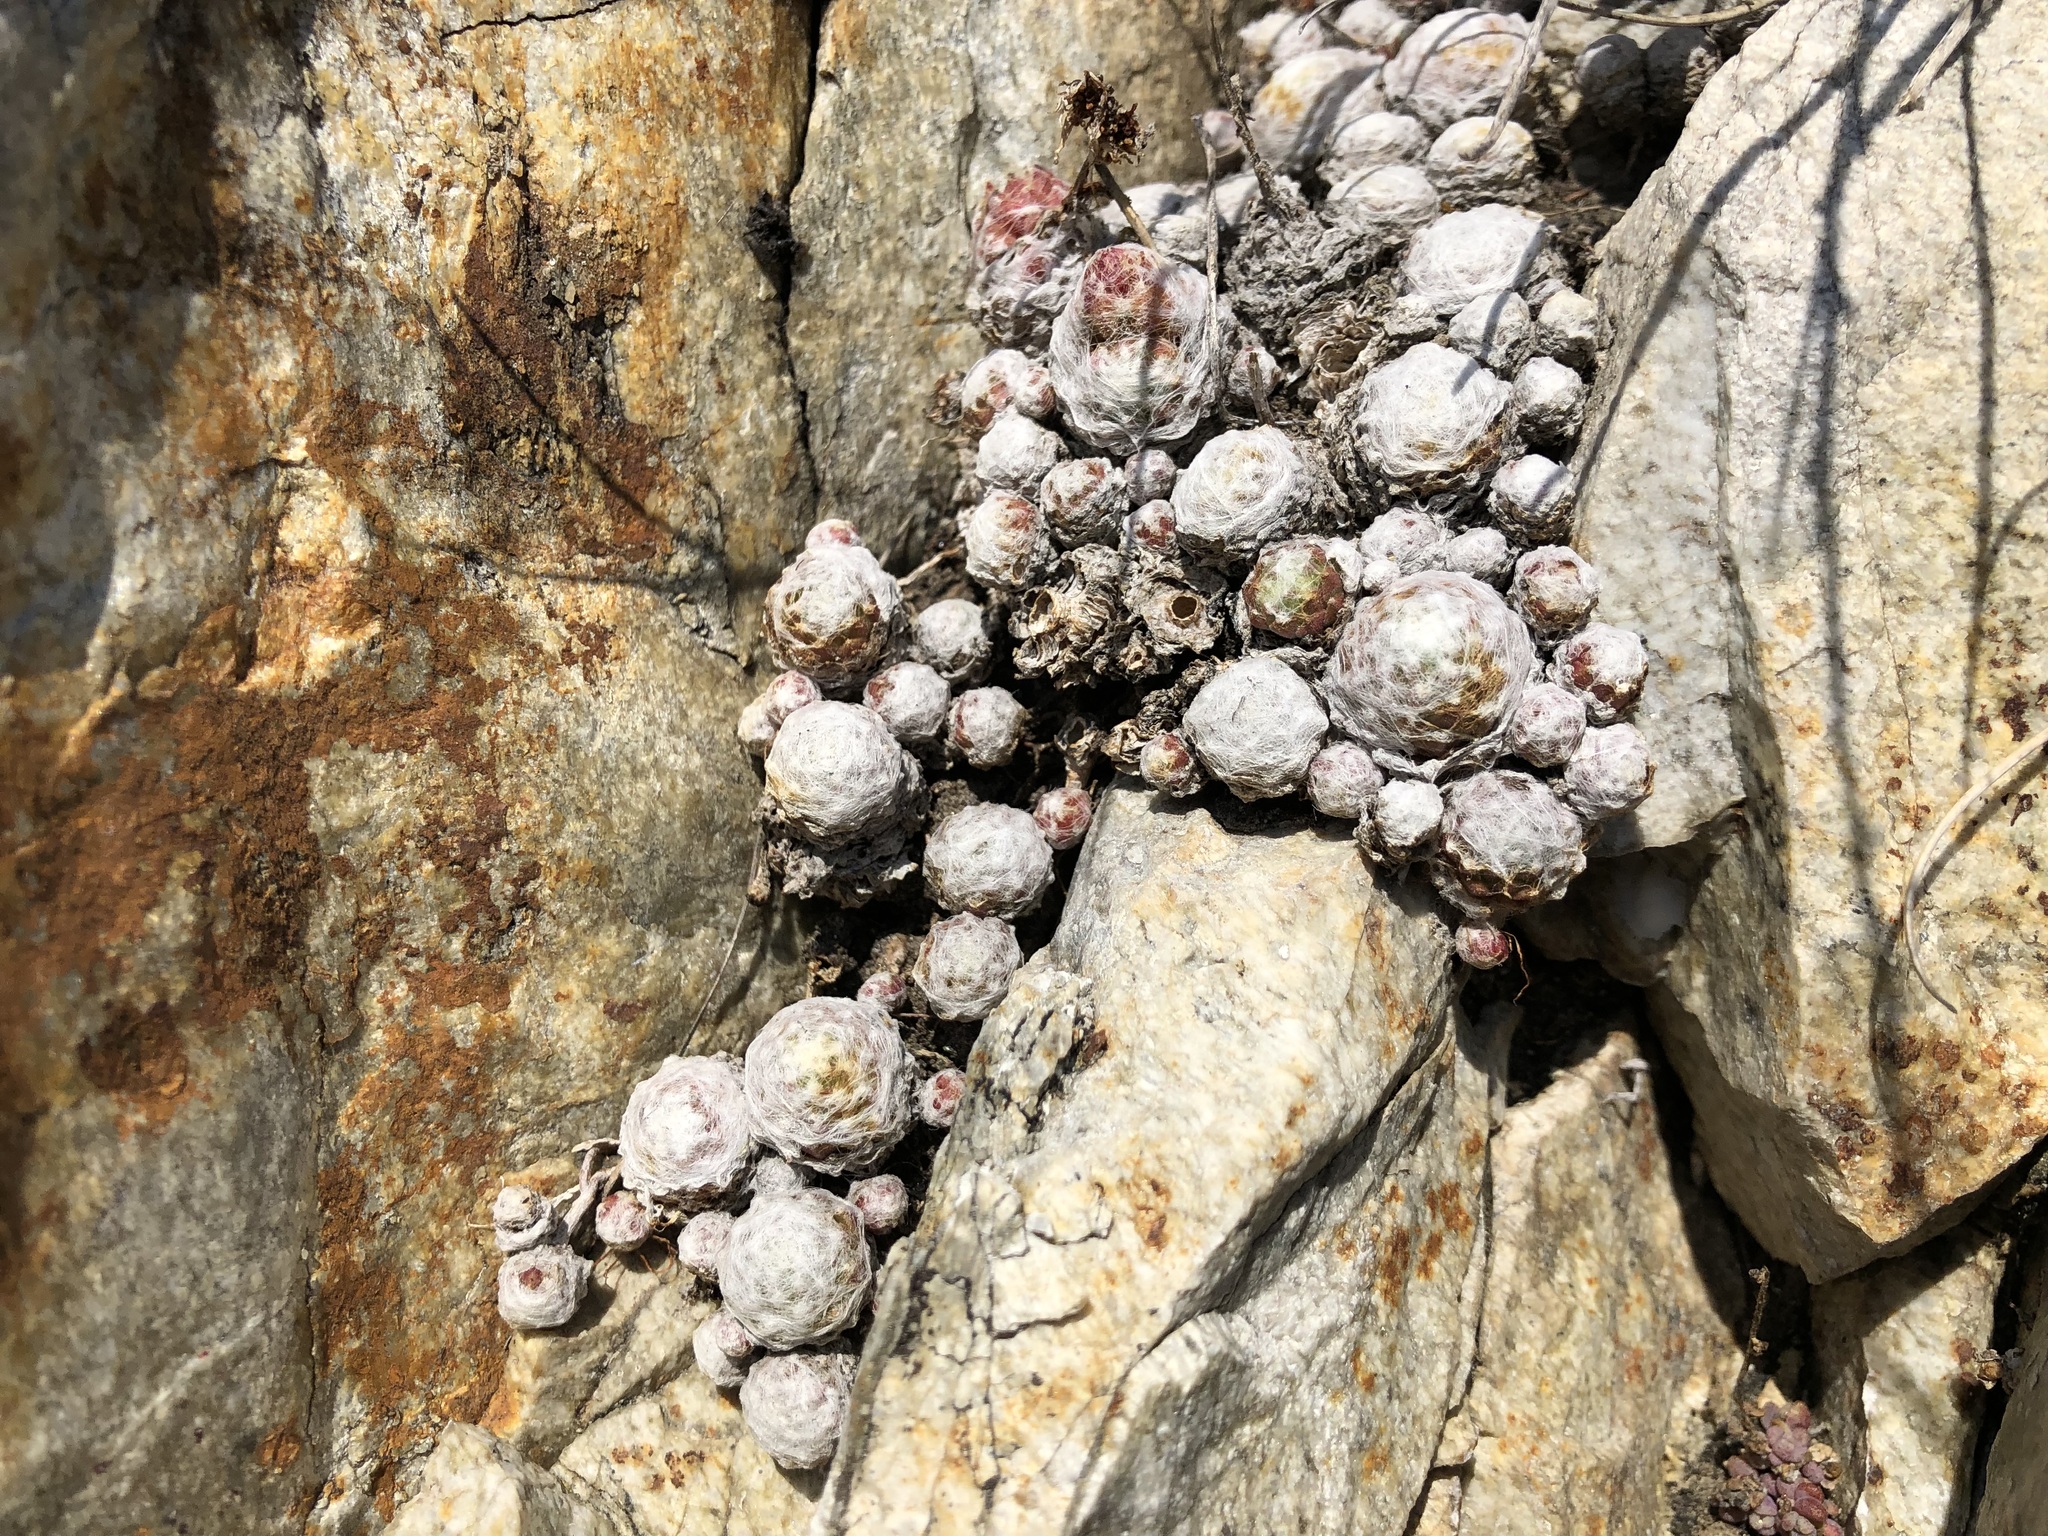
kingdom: Plantae
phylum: Tracheophyta
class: Magnoliopsida
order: Saxifragales
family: Crassulaceae
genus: Sempervivum
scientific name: Sempervivum arachnoideum
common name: Cobweb house-leek
